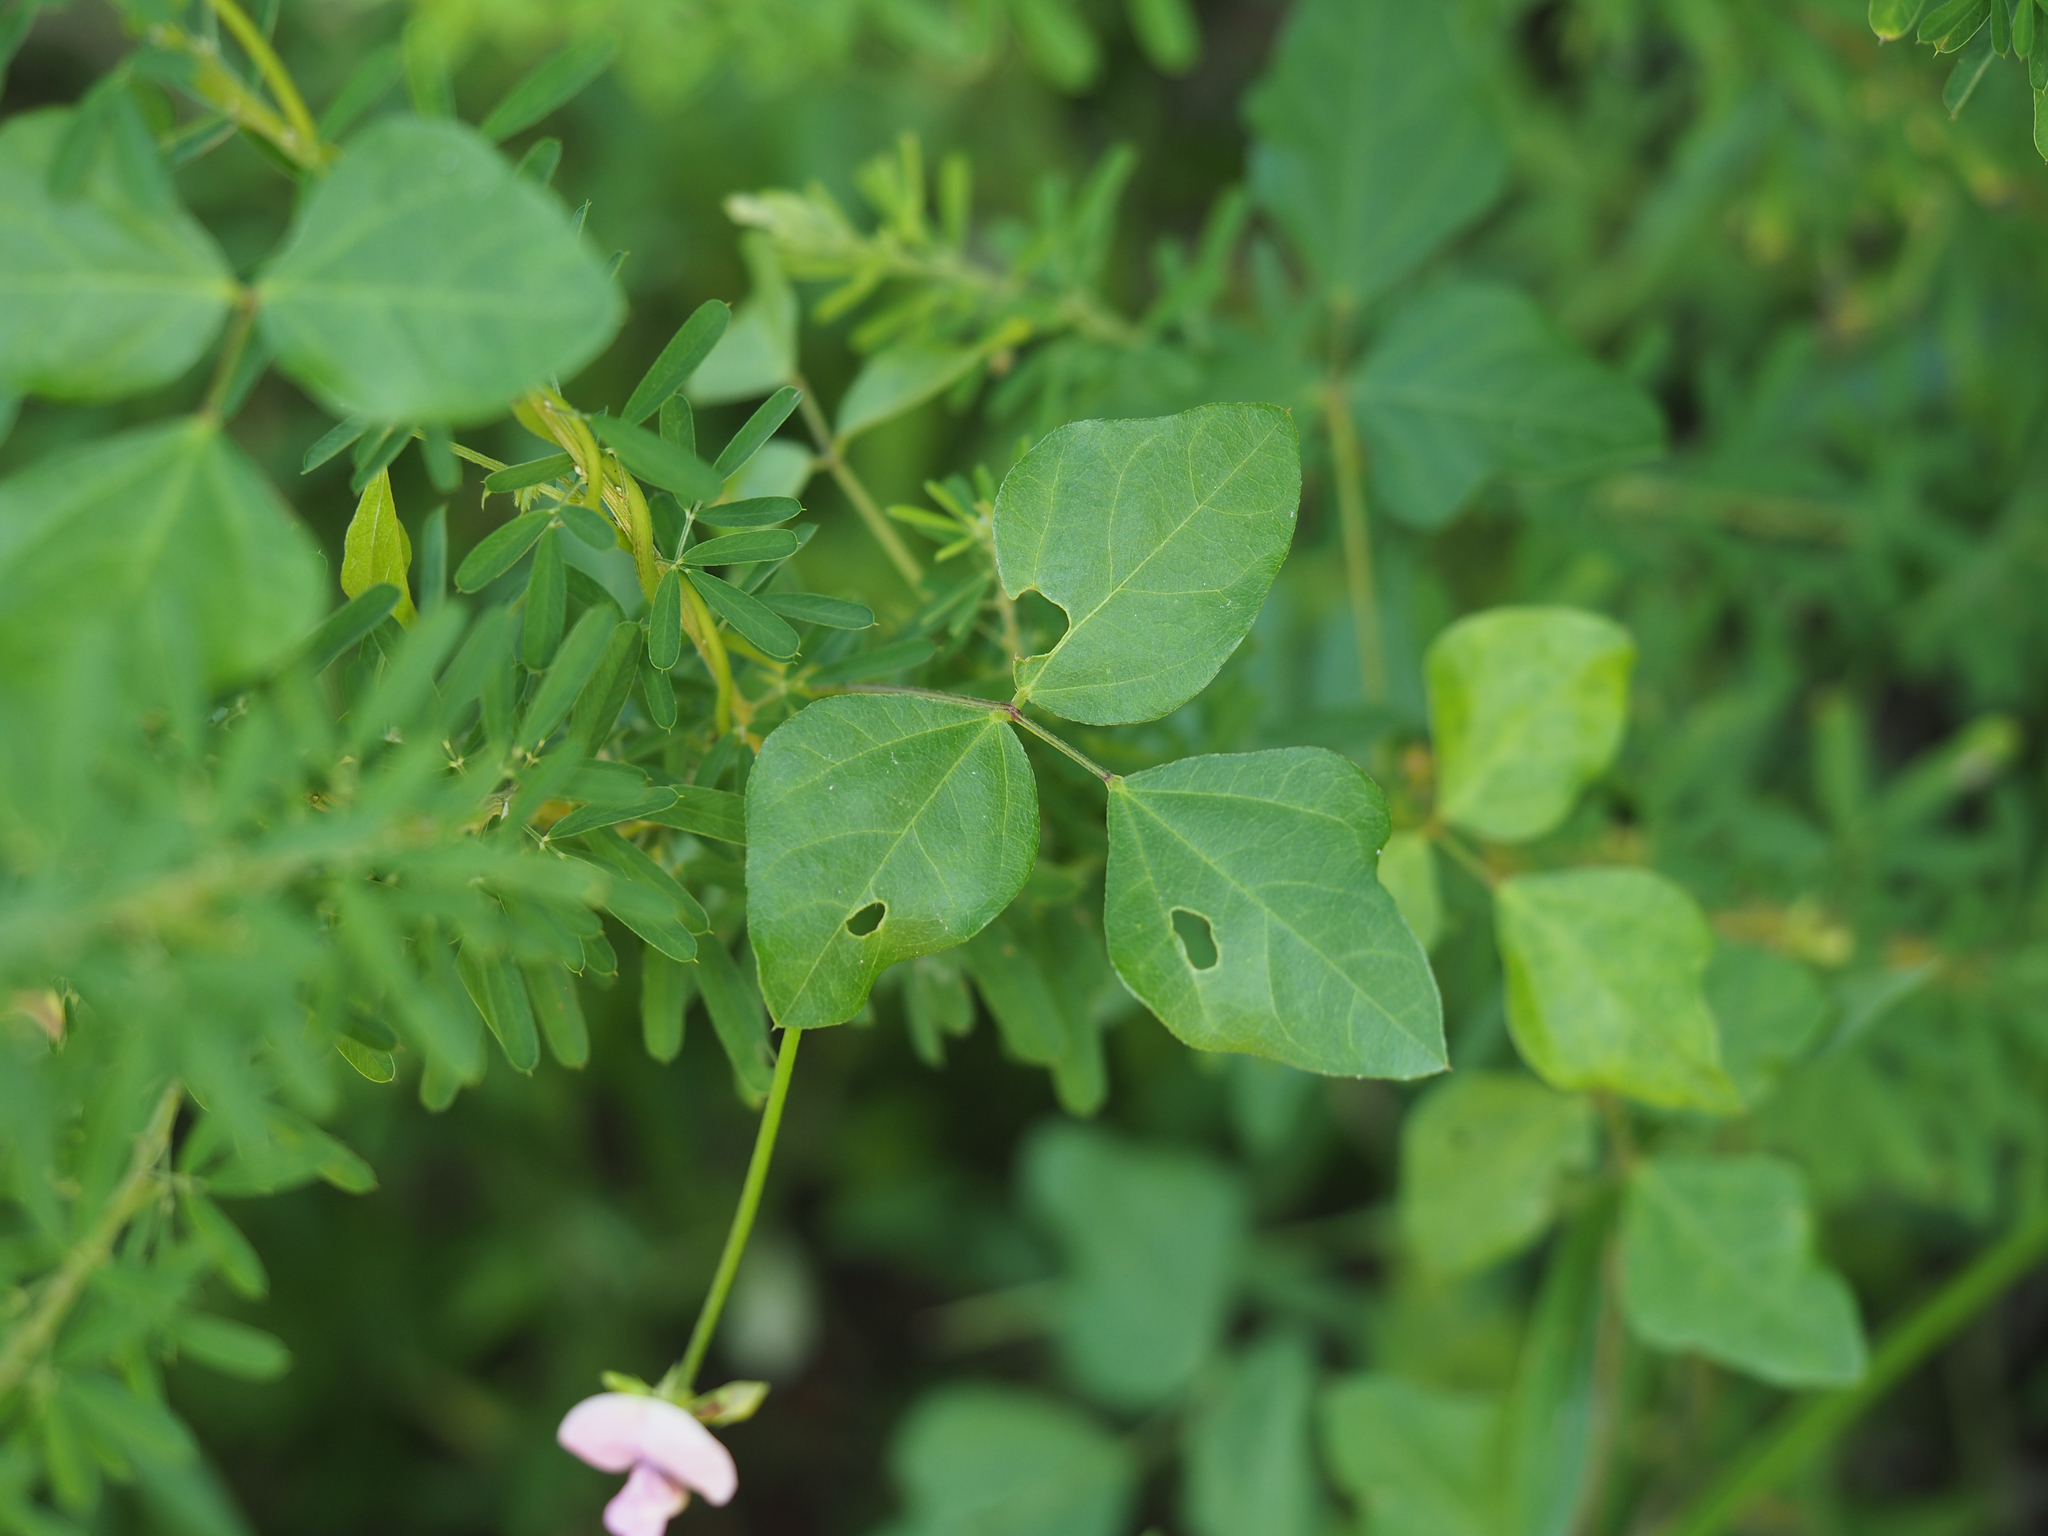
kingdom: Plantae
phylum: Tracheophyta
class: Magnoliopsida
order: Fabales
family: Fabaceae
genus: Strophostyles
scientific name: Strophostyles helvola
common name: Trailing wild bean
